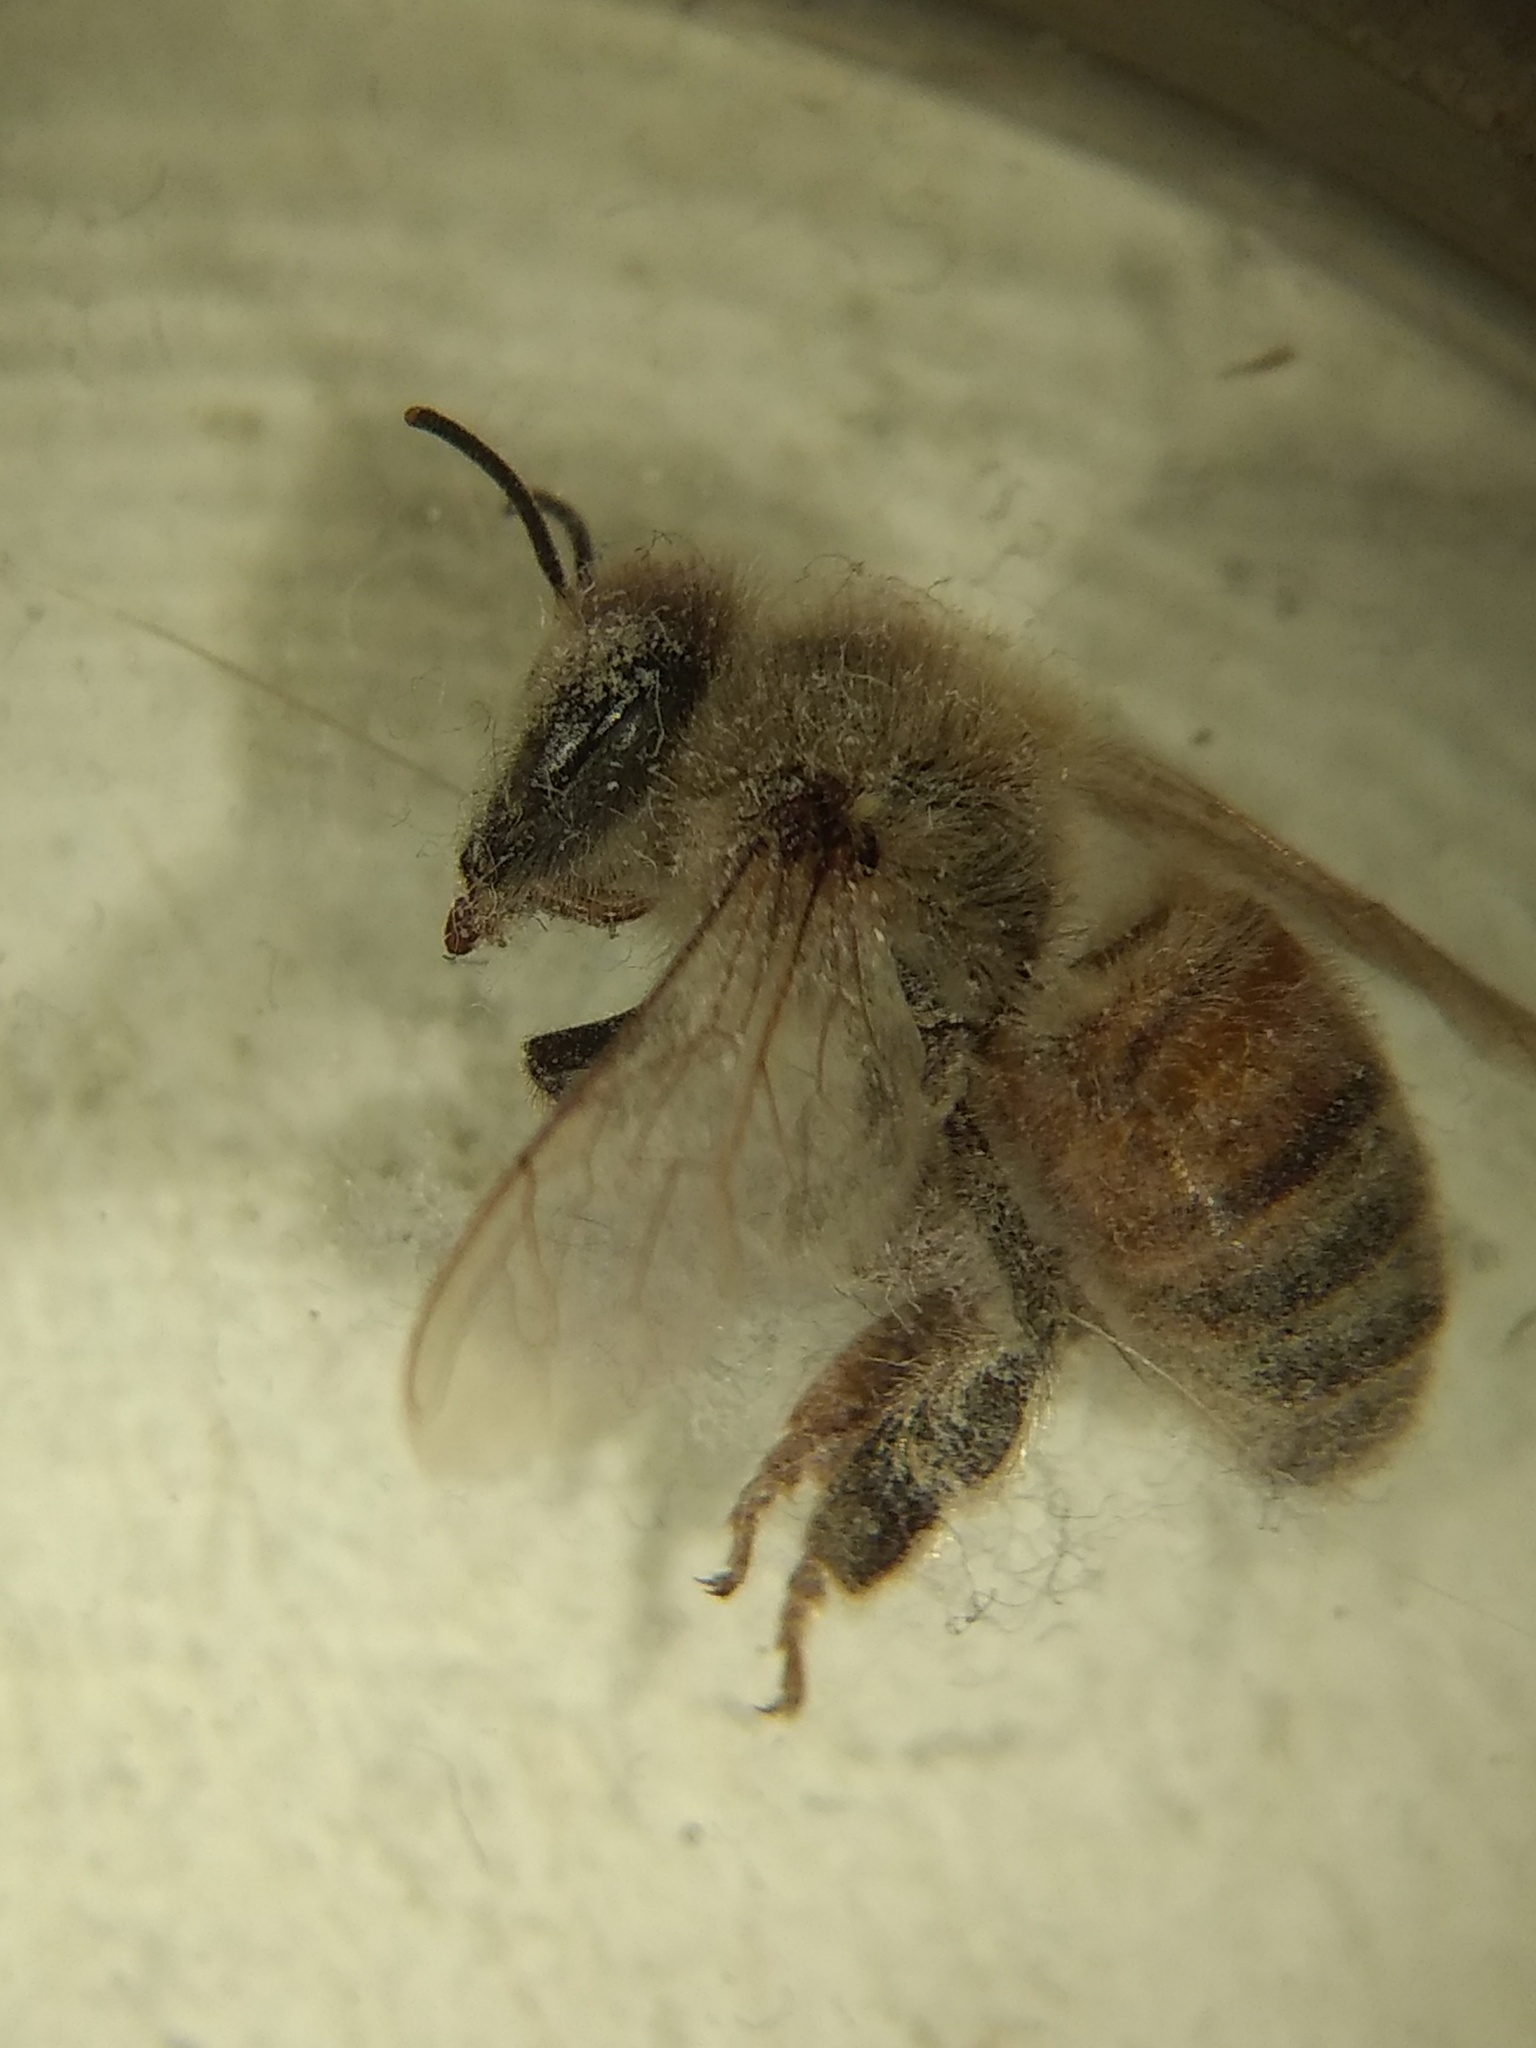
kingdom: Animalia
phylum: Arthropoda
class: Insecta
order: Hymenoptera
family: Apidae
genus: Apis
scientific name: Apis mellifera
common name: Honey bee
